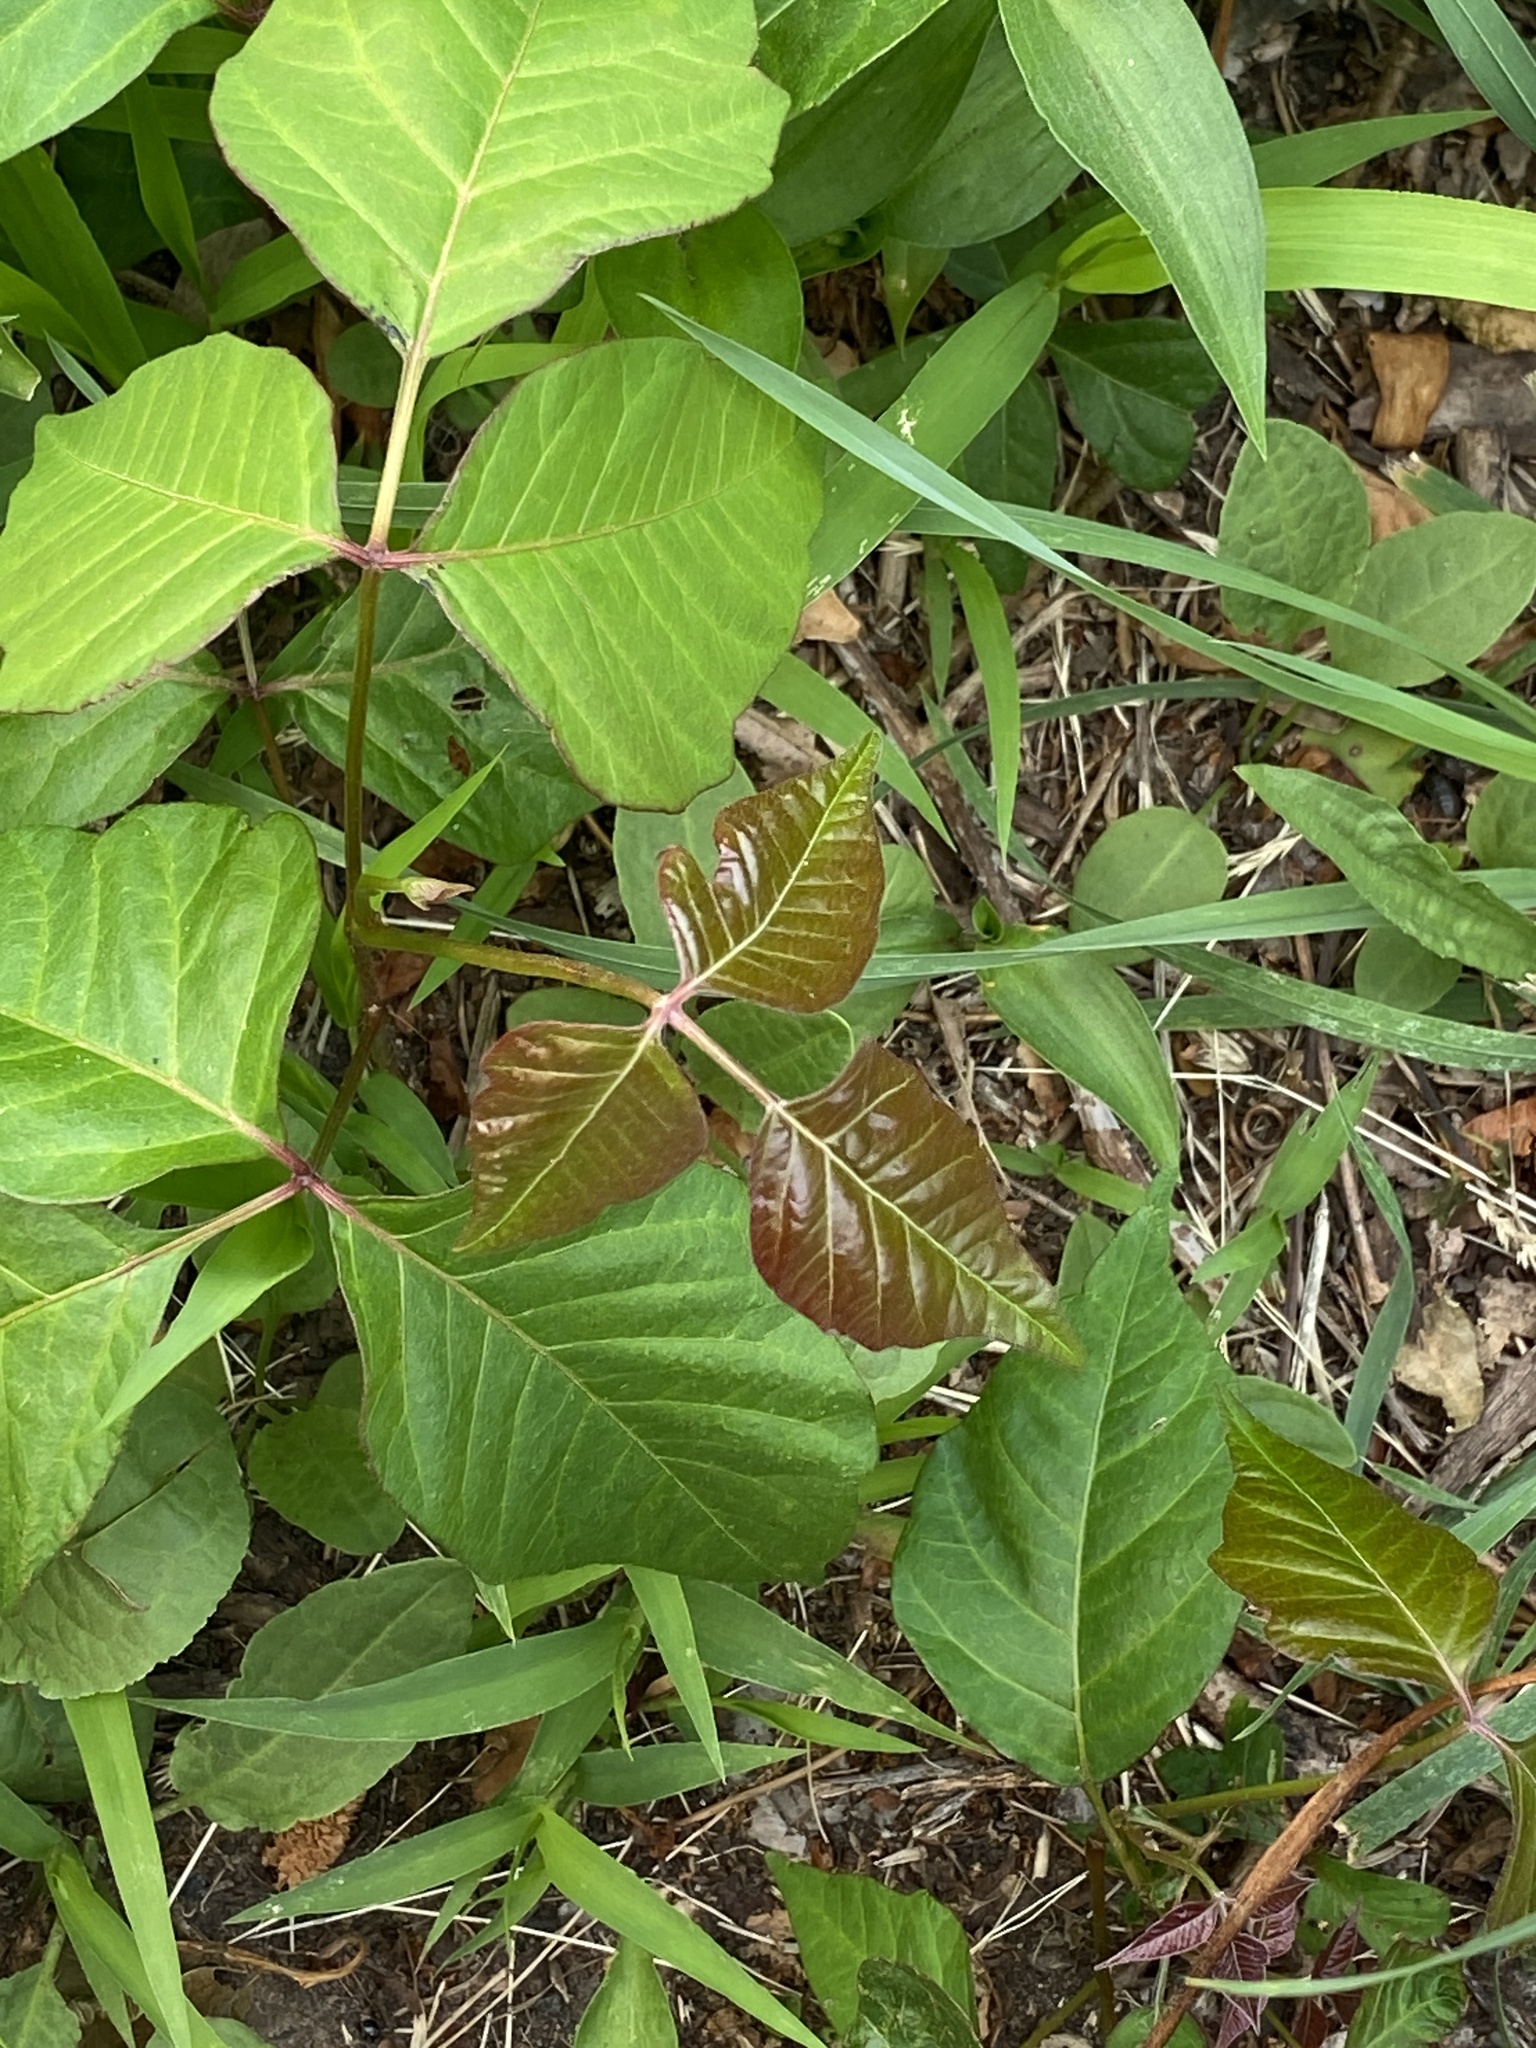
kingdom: Plantae
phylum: Tracheophyta
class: Magnoliopsida
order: Sapindales
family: Anacardiaceae
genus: Toxicodendron
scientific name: Toxicodendron radicans
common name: Poison ivy
